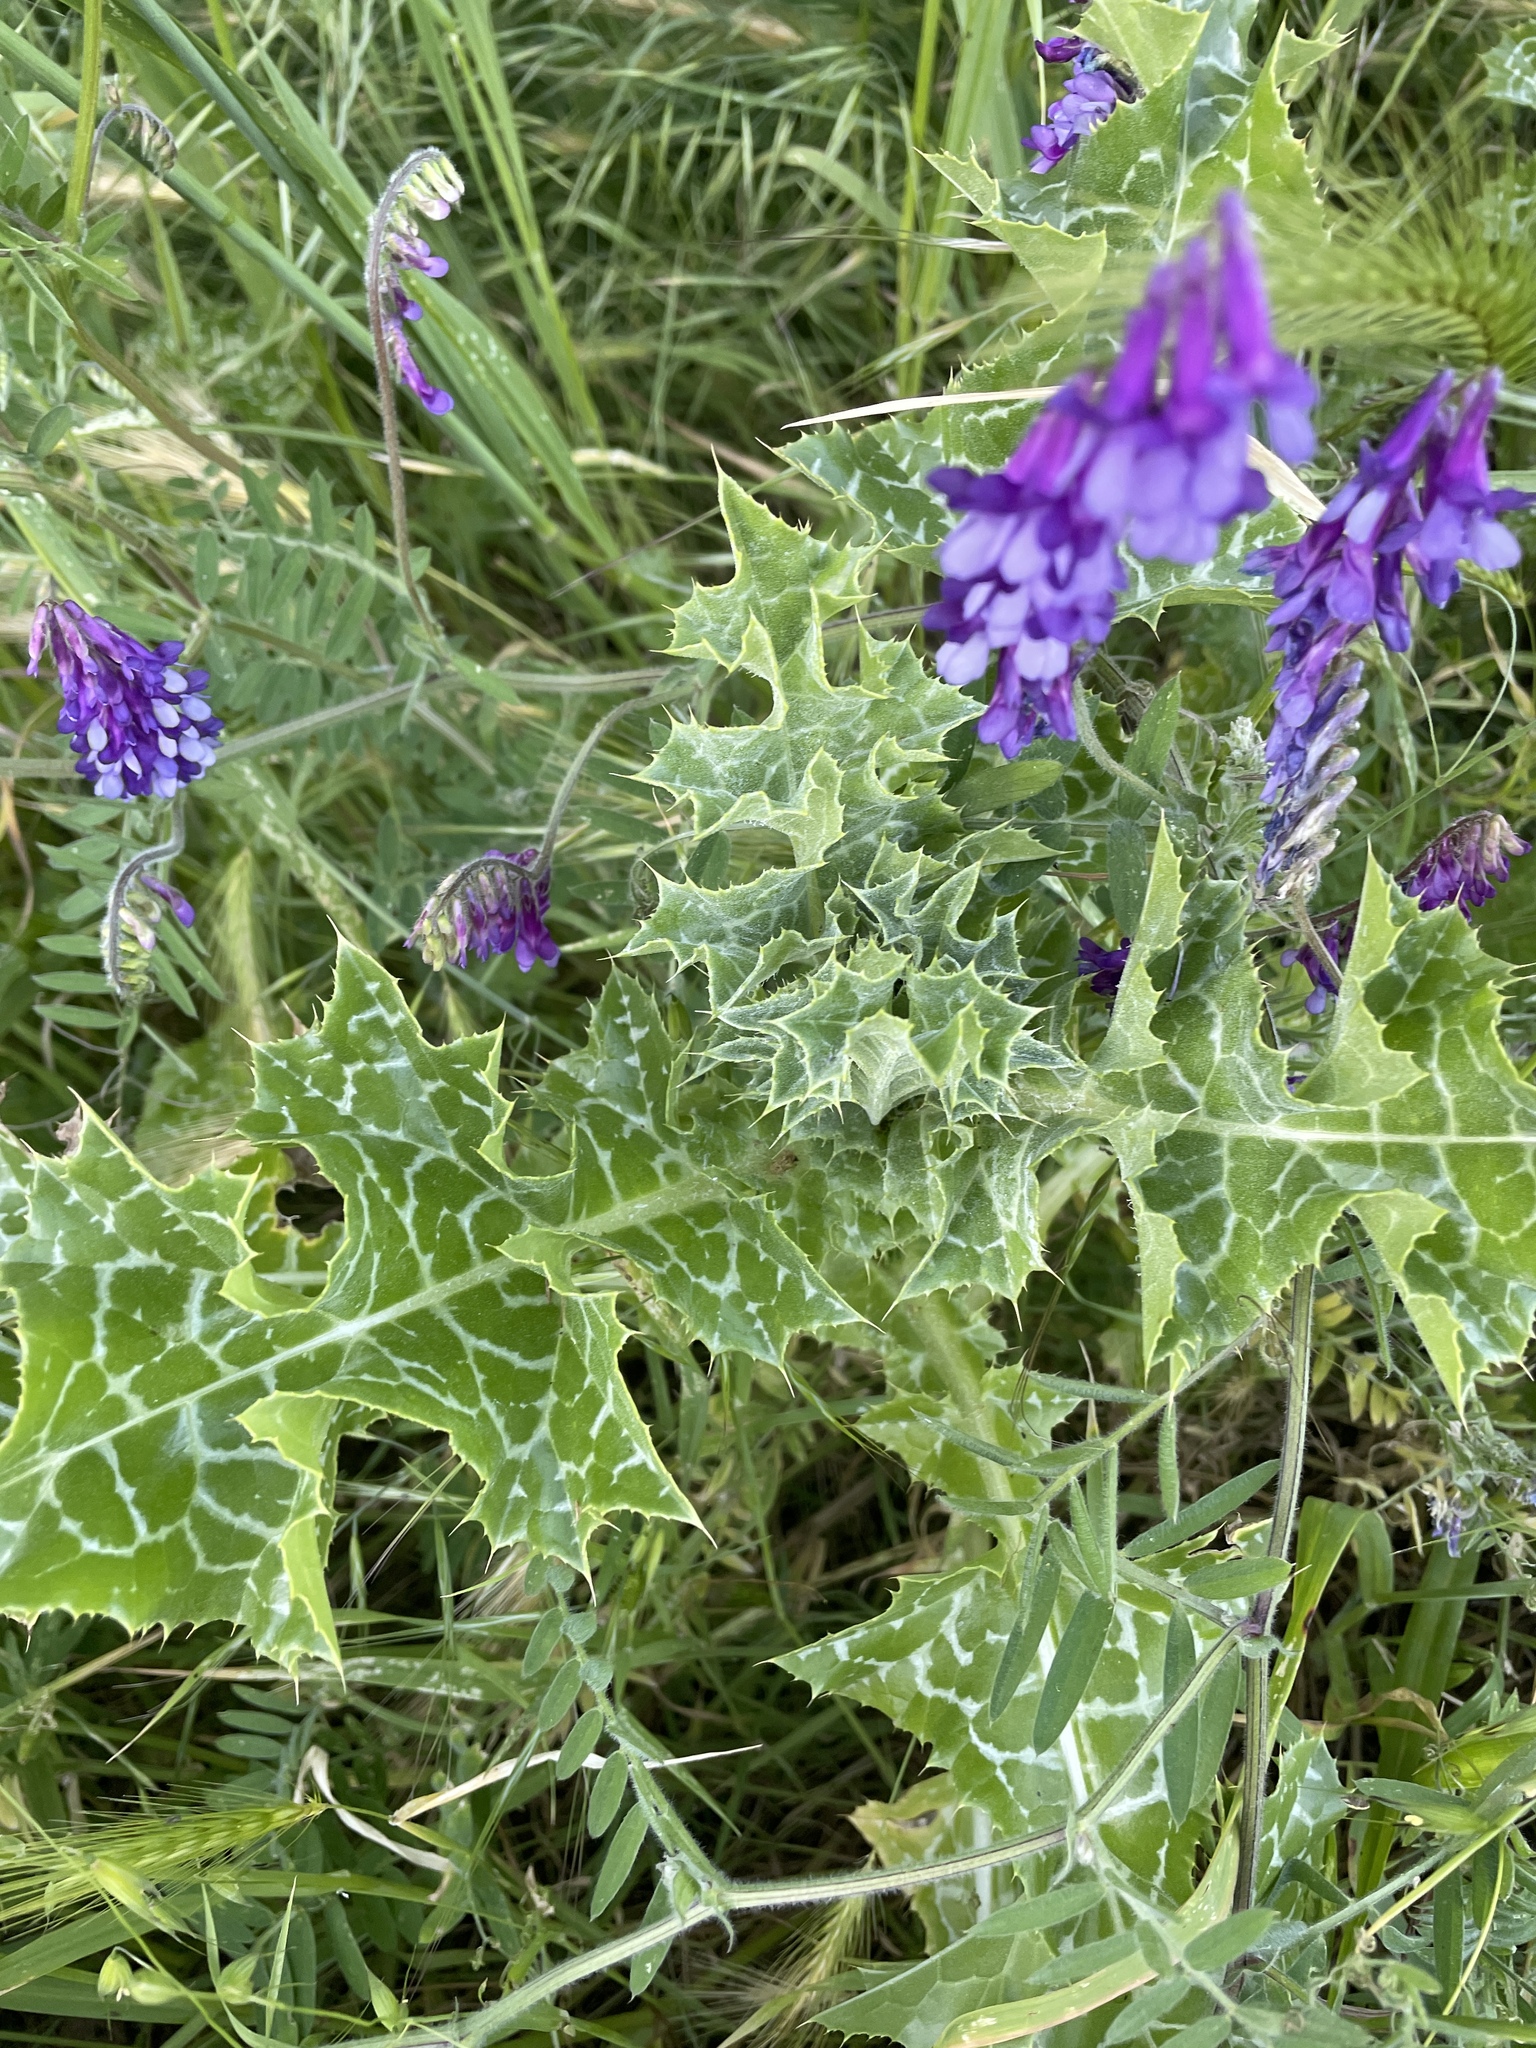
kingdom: Plantae
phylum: Tracheophyta
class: Magnoliopsida
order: Asterales
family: Asteraceae
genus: Silybum
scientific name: Silybum marianum
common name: Milk thistle
